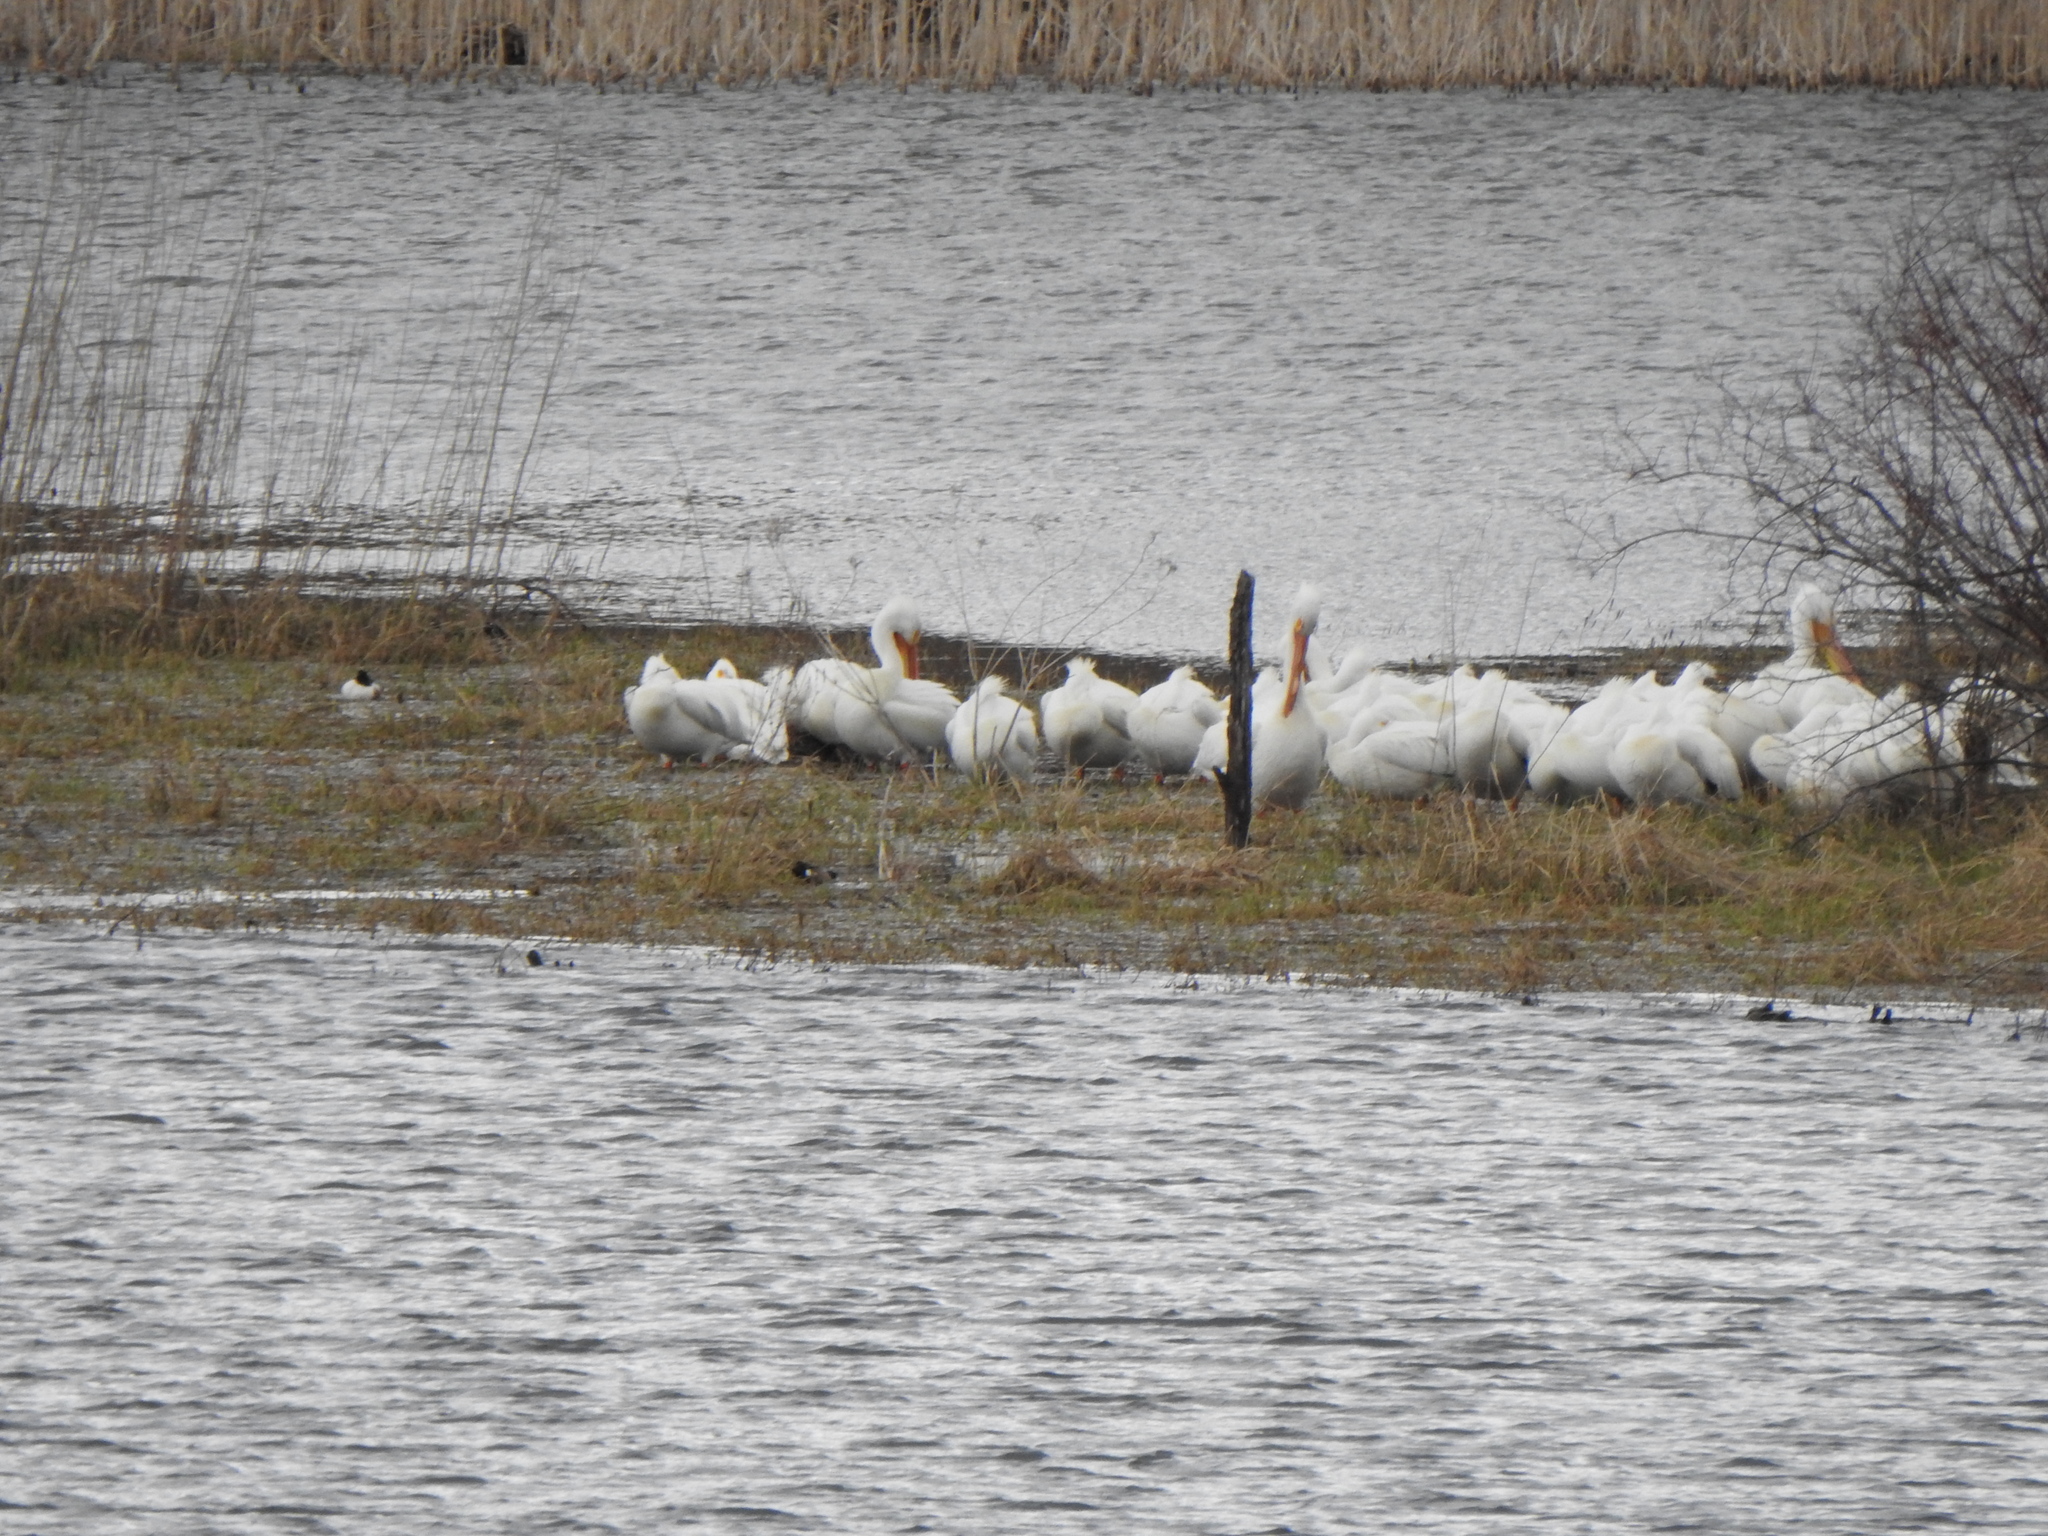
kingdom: Animalia
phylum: Chordata
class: Aves
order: Pelecaniformes
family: Pelecanidae
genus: Pelecanus
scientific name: Pelecanus erythrorhynchos
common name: American white pelican
